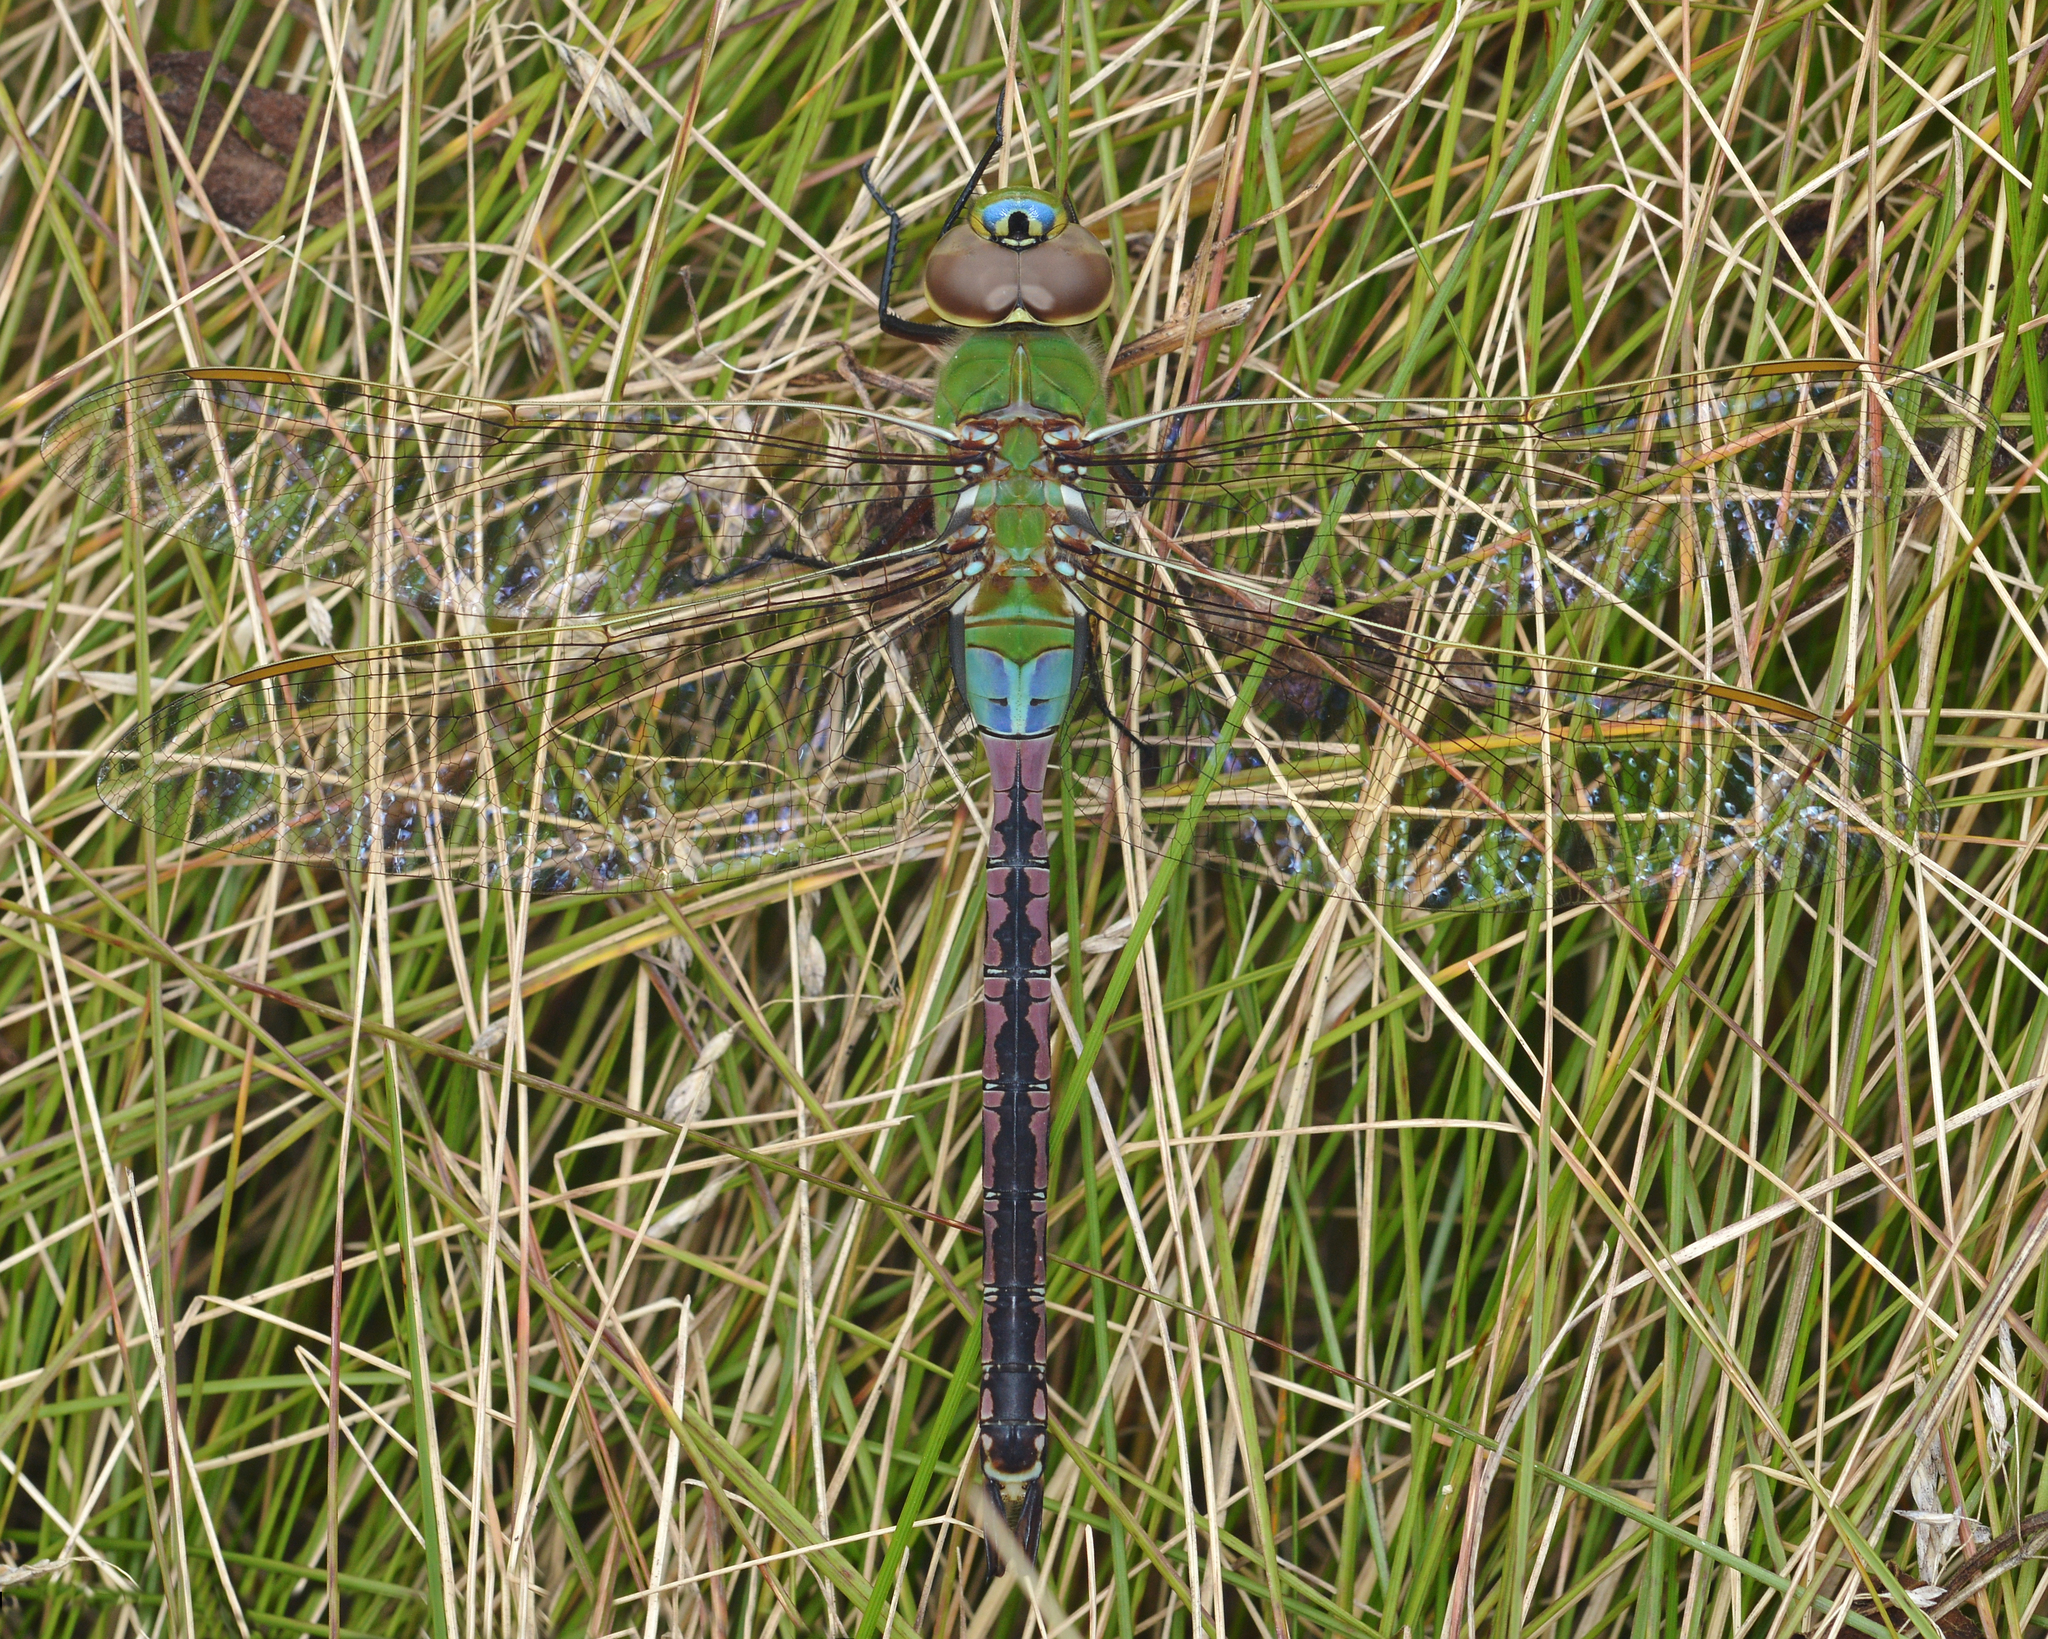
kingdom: Animalia
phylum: Arthropoda
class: Insecta
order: Odonata
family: Aeshnidae
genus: Anax
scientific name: Anax junius
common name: Common green darner
